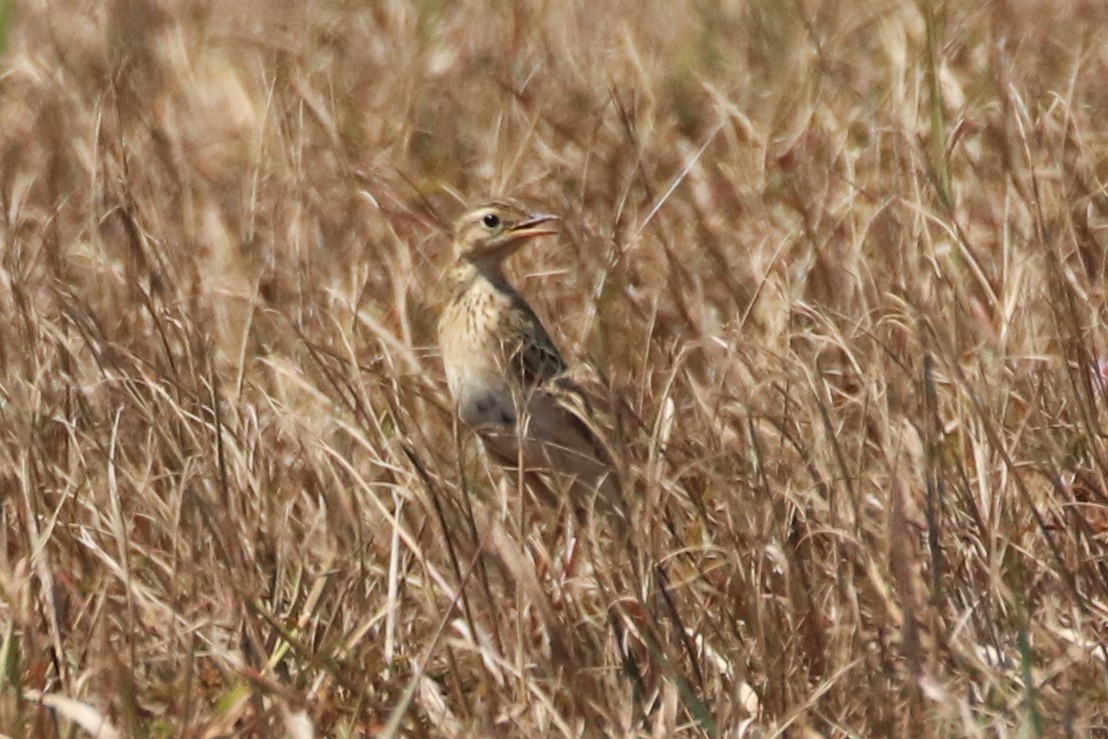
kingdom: Animalia
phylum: Chordata
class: Aves
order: Passeriformes
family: Motacillidae
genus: Anthus
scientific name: Anthus rufulus
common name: Paddyfield pipit
